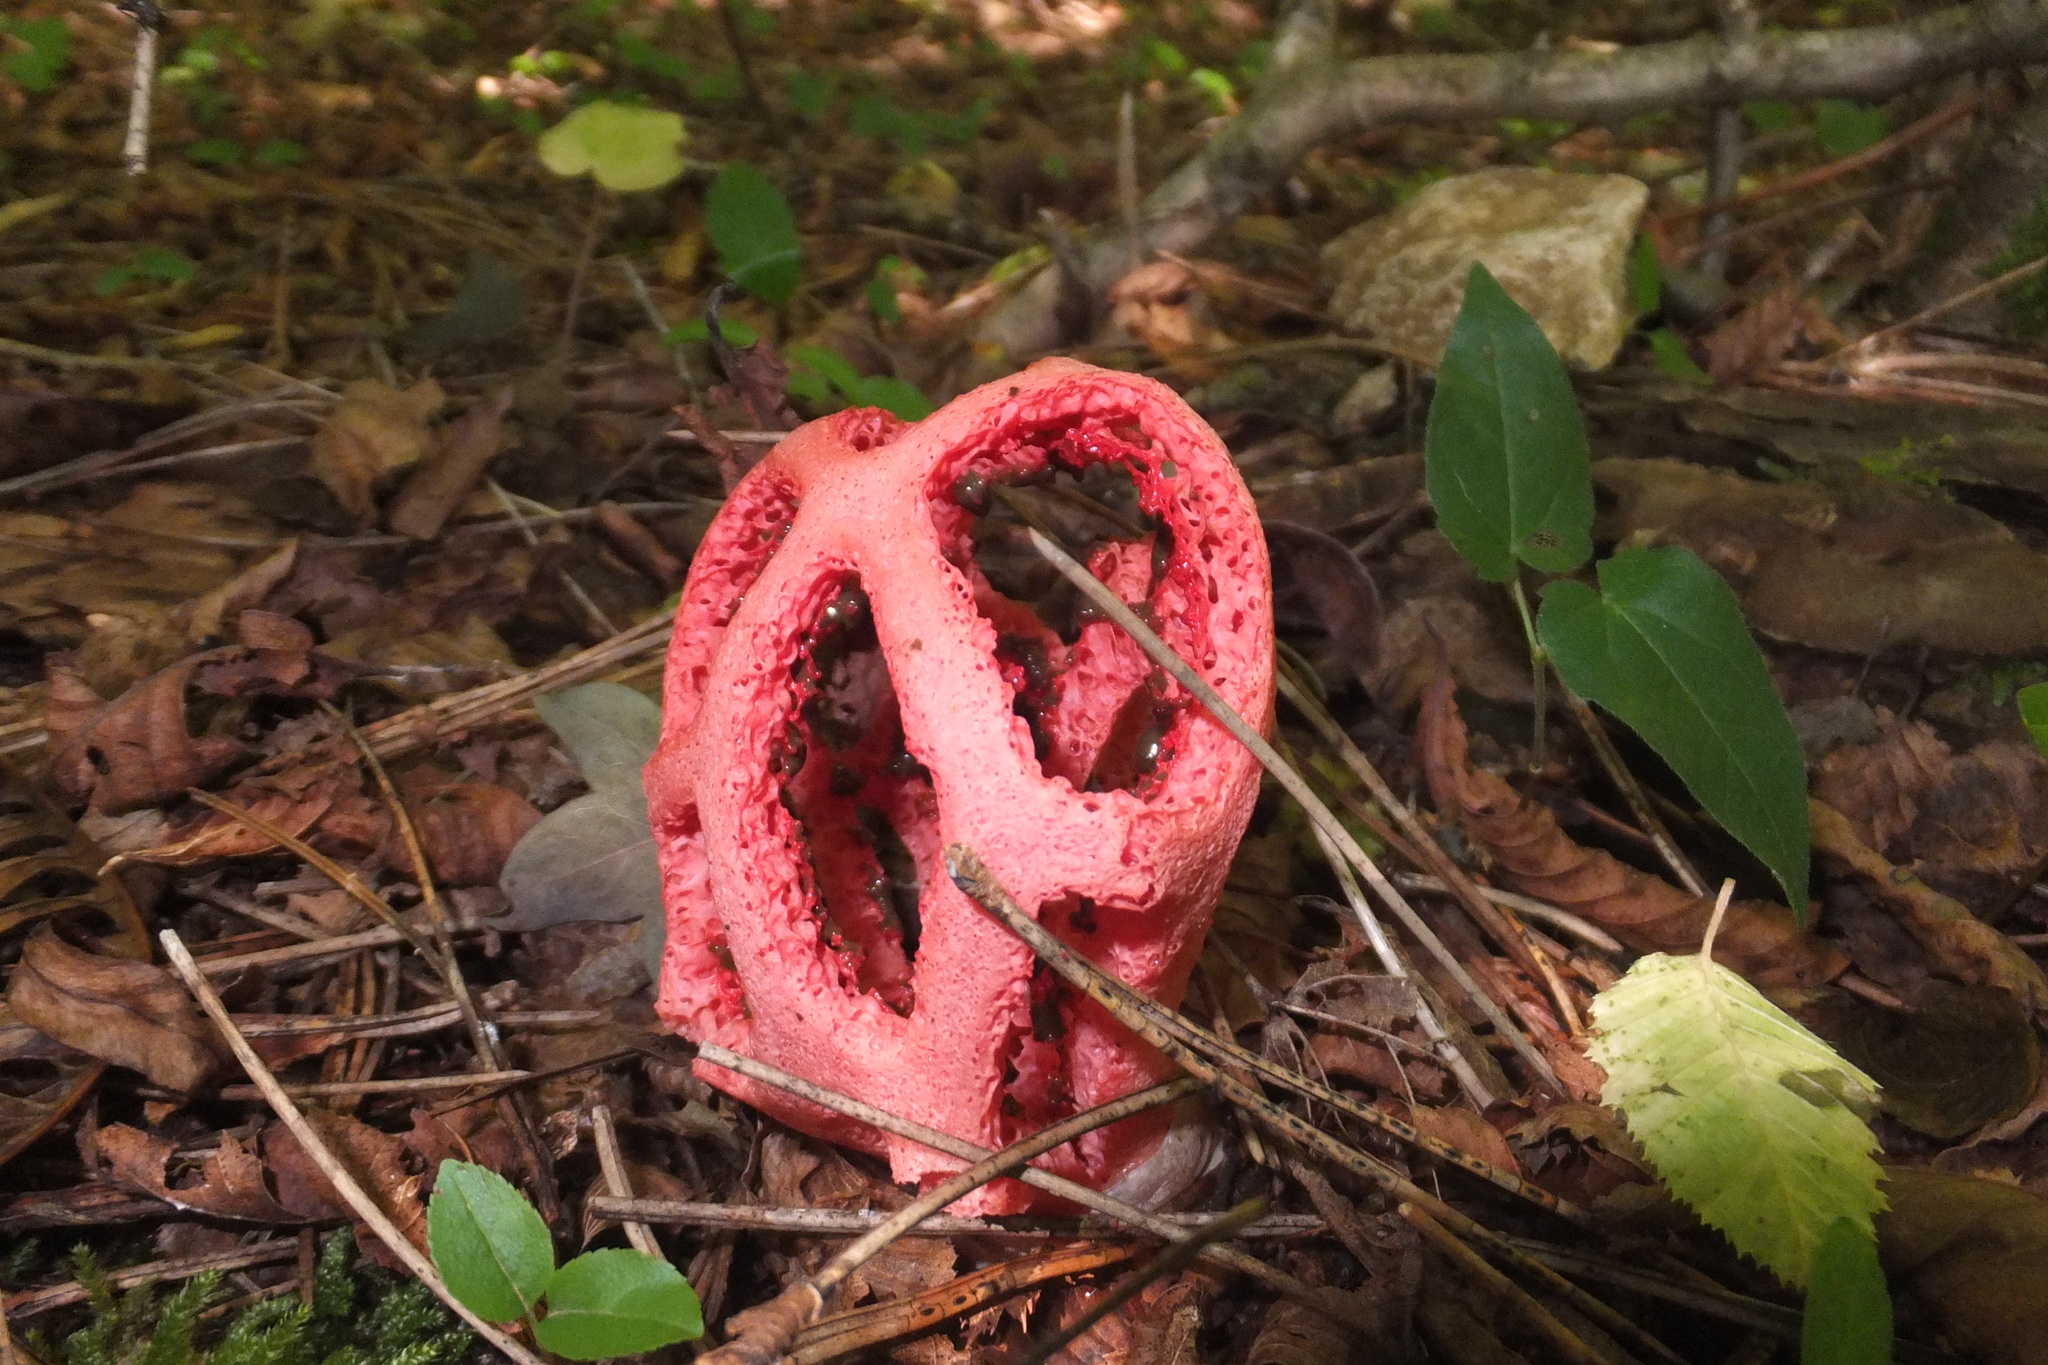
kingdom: Fungi
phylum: Basidiomycota
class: Agaricomycetes
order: Phallales
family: Phallaceae
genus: Clathrus
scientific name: Clathrus ruber
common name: Red cage
